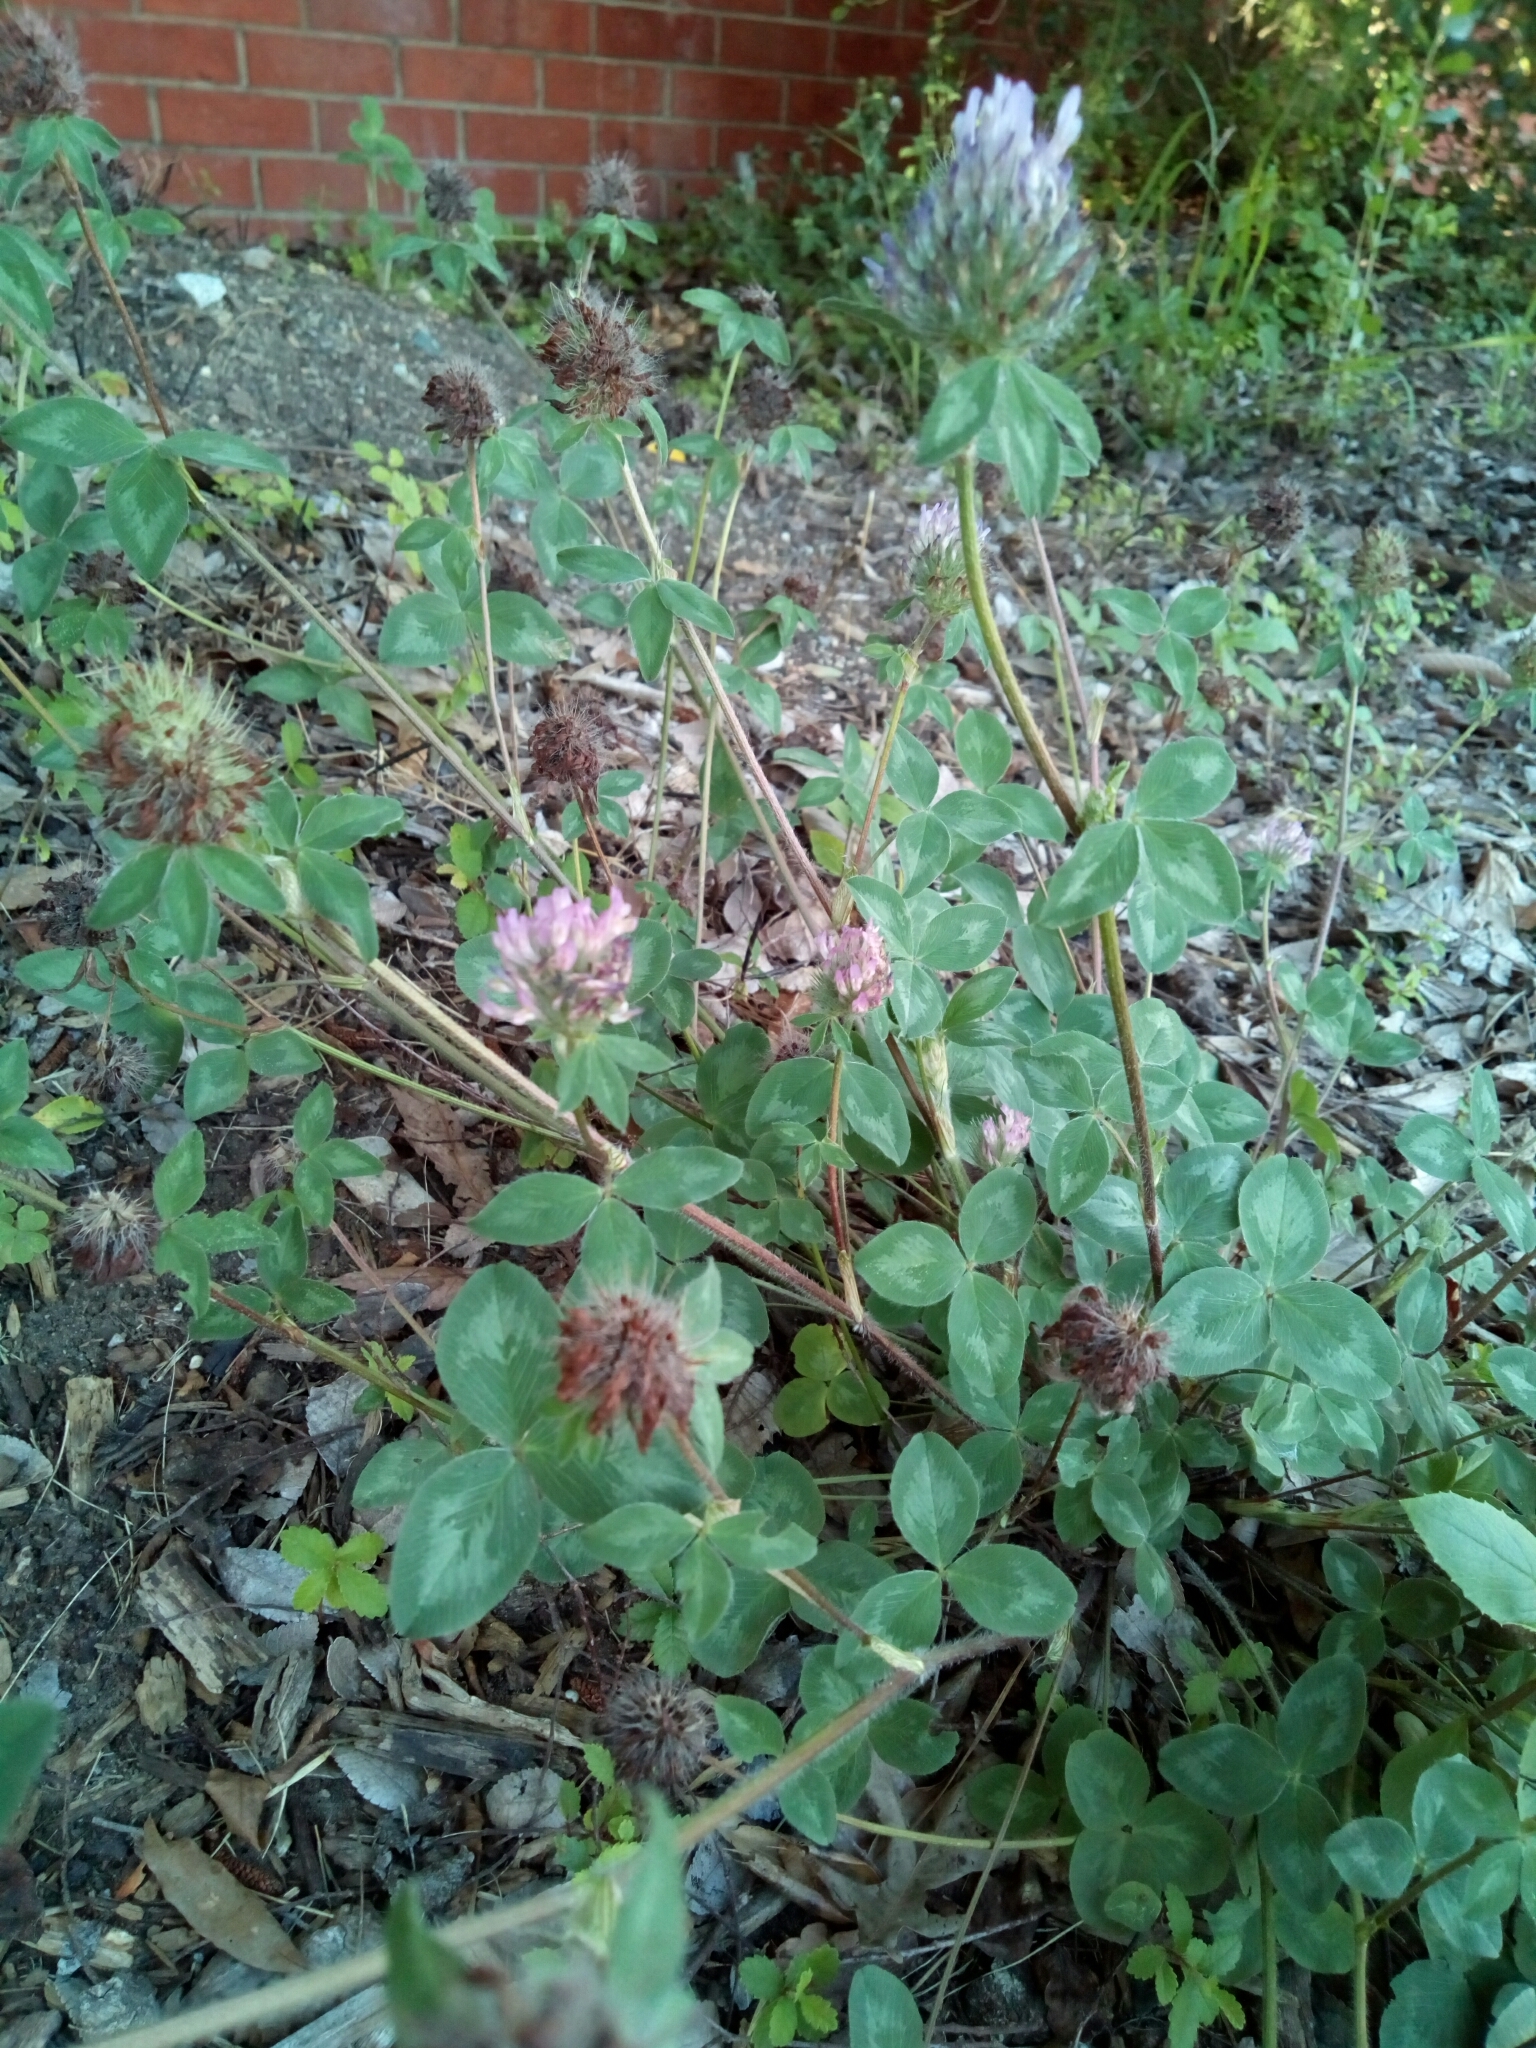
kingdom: Plantae
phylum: Tracheophyta
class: Magnoliopsida
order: Fabales
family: Fabaceae
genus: Trifolium
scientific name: Trifolium pratense
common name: Red clover
